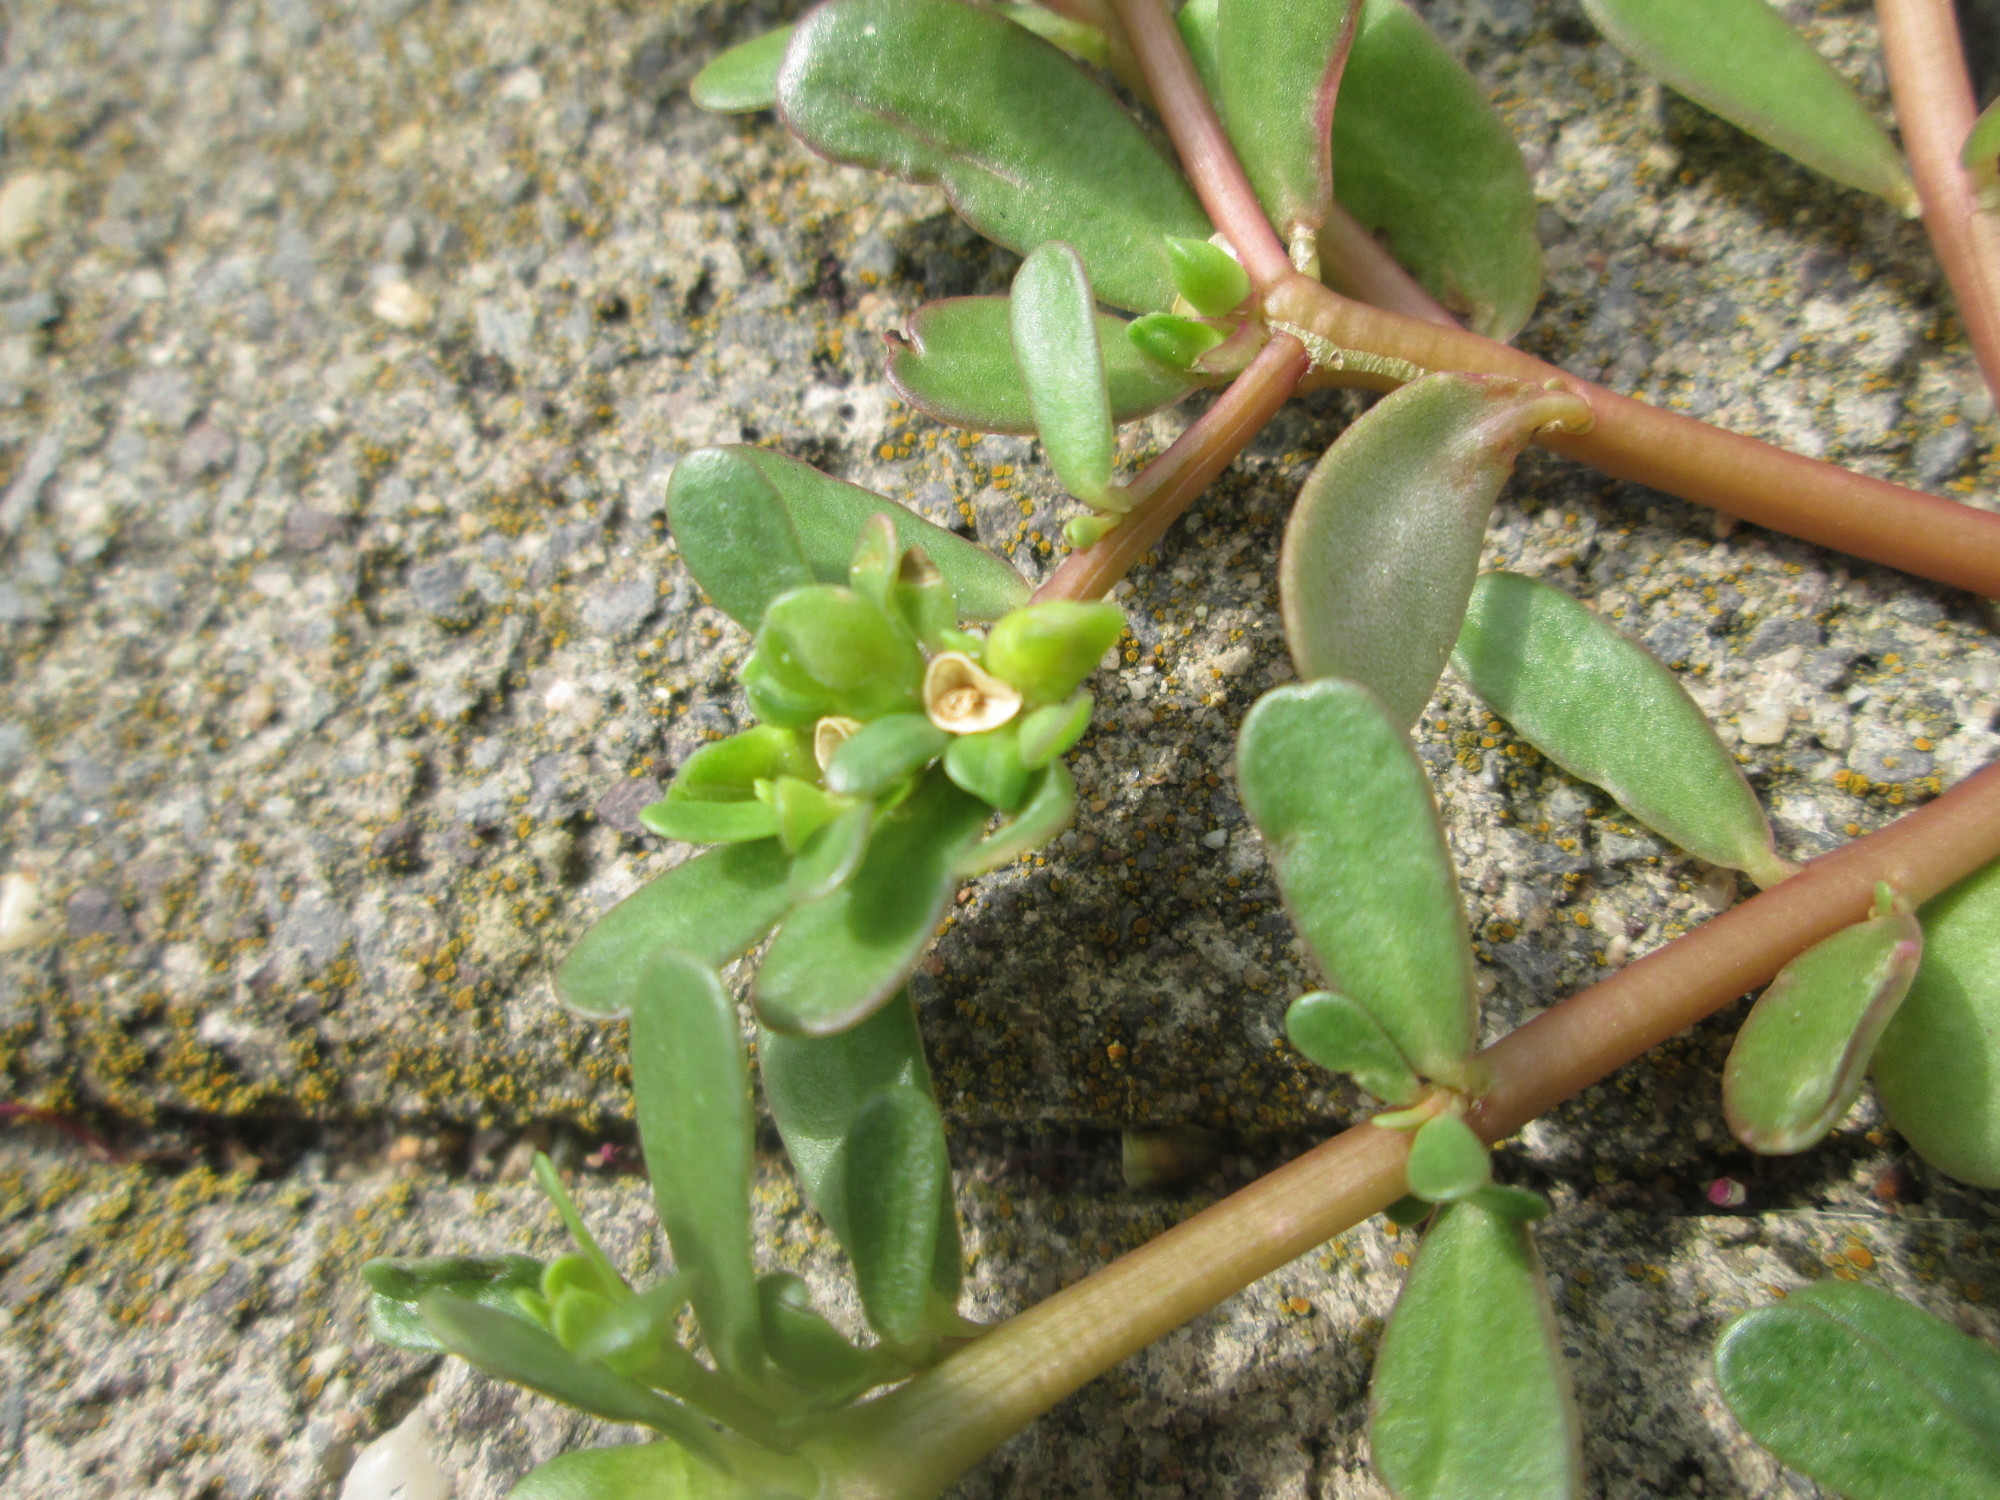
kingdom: Plantae
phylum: Tracheophyta
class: Magnoliopsida
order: Caryophyllales
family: Portulacaceae
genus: Portulaca
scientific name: Portulaca oleracea
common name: Common purslane
